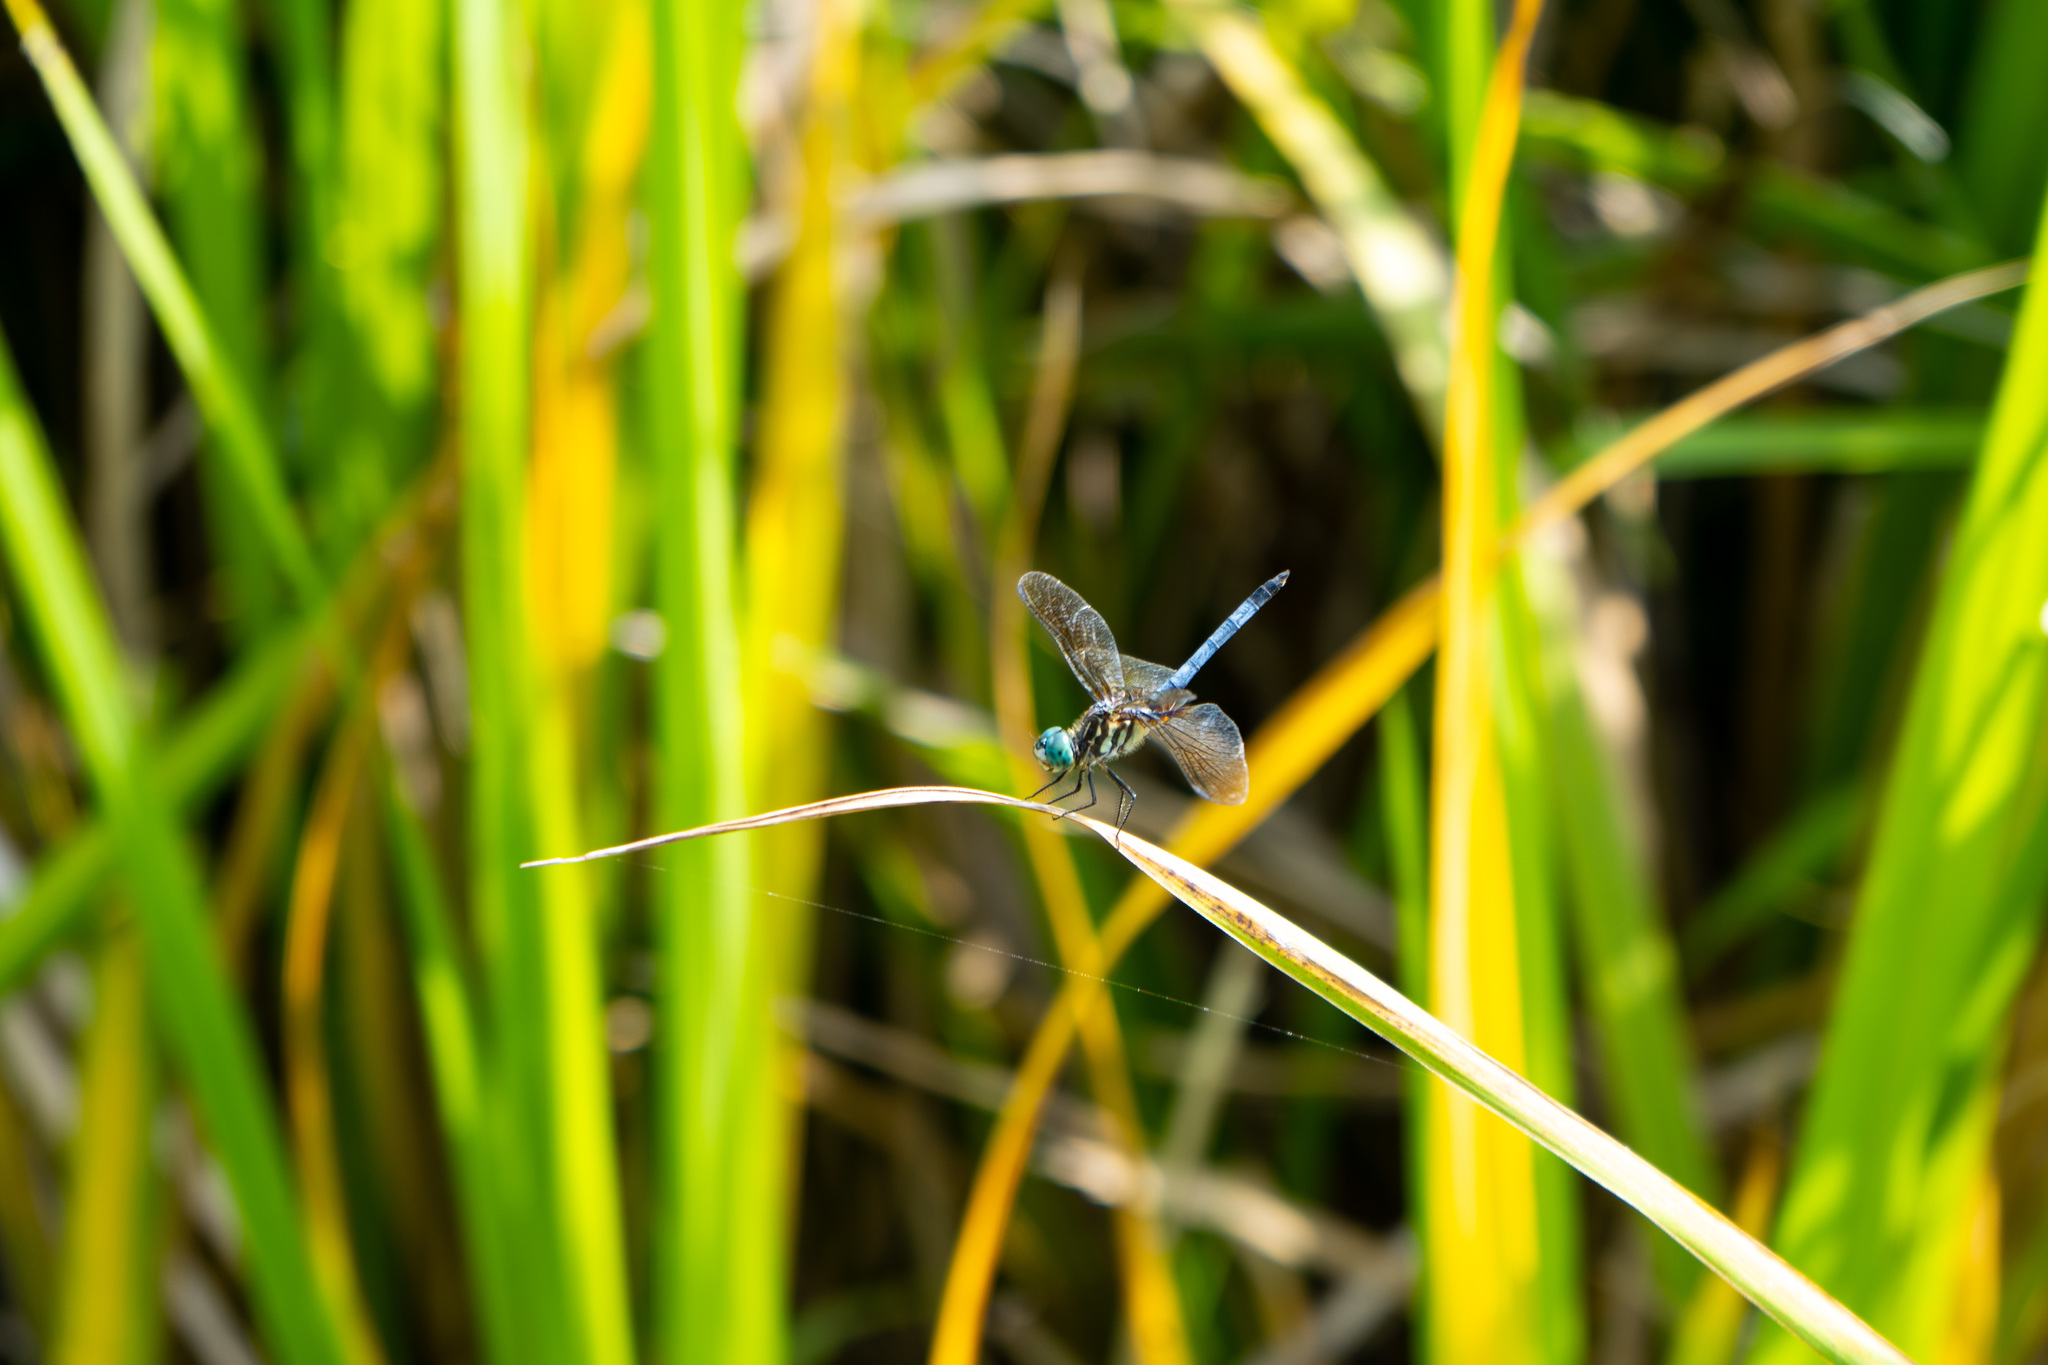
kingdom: Animalia
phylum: Arthropoda
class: Insecta
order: Odonata
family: Libellulidae
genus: Pachydiplax
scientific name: Pachydiplax longipennis
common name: Blue dasher
